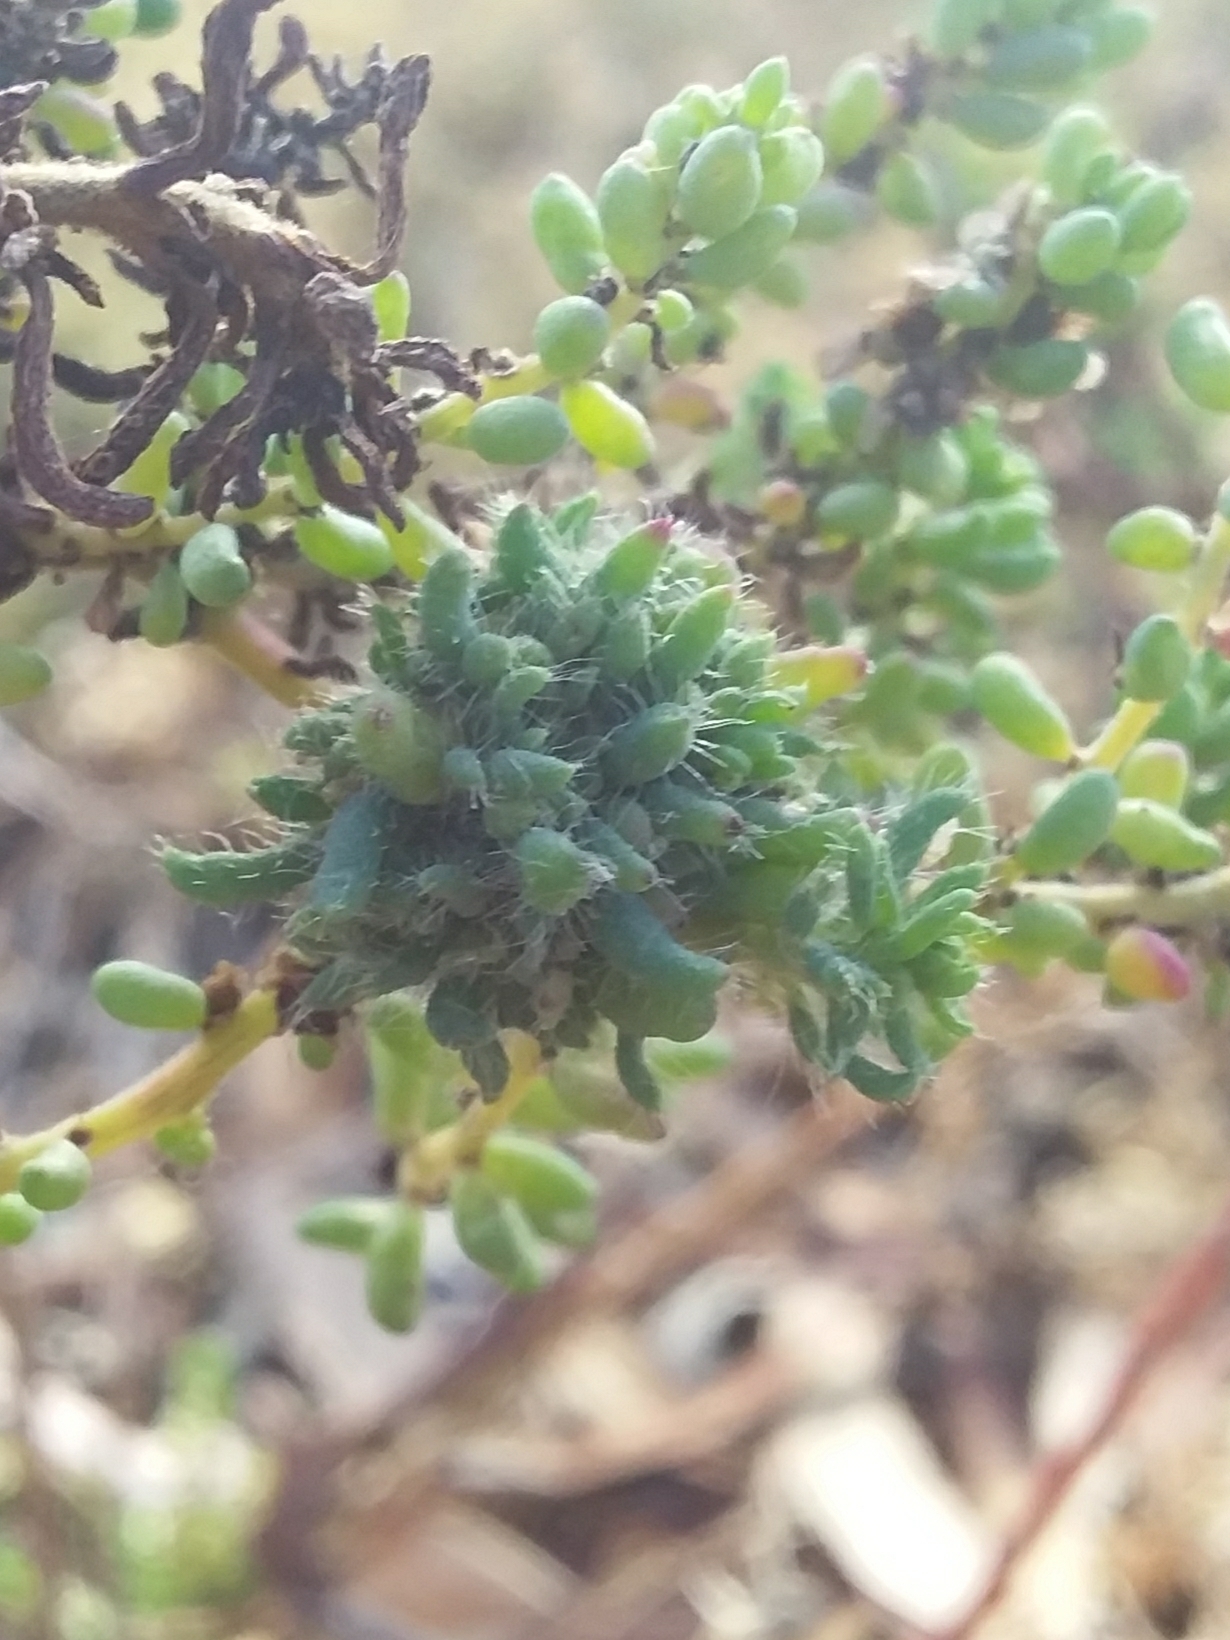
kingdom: Animalia
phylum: Arthropoda
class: Insecta
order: Diptera
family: Cecidomyiidae
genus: Dactylasioptera
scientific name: Dactylasioptera milnae
